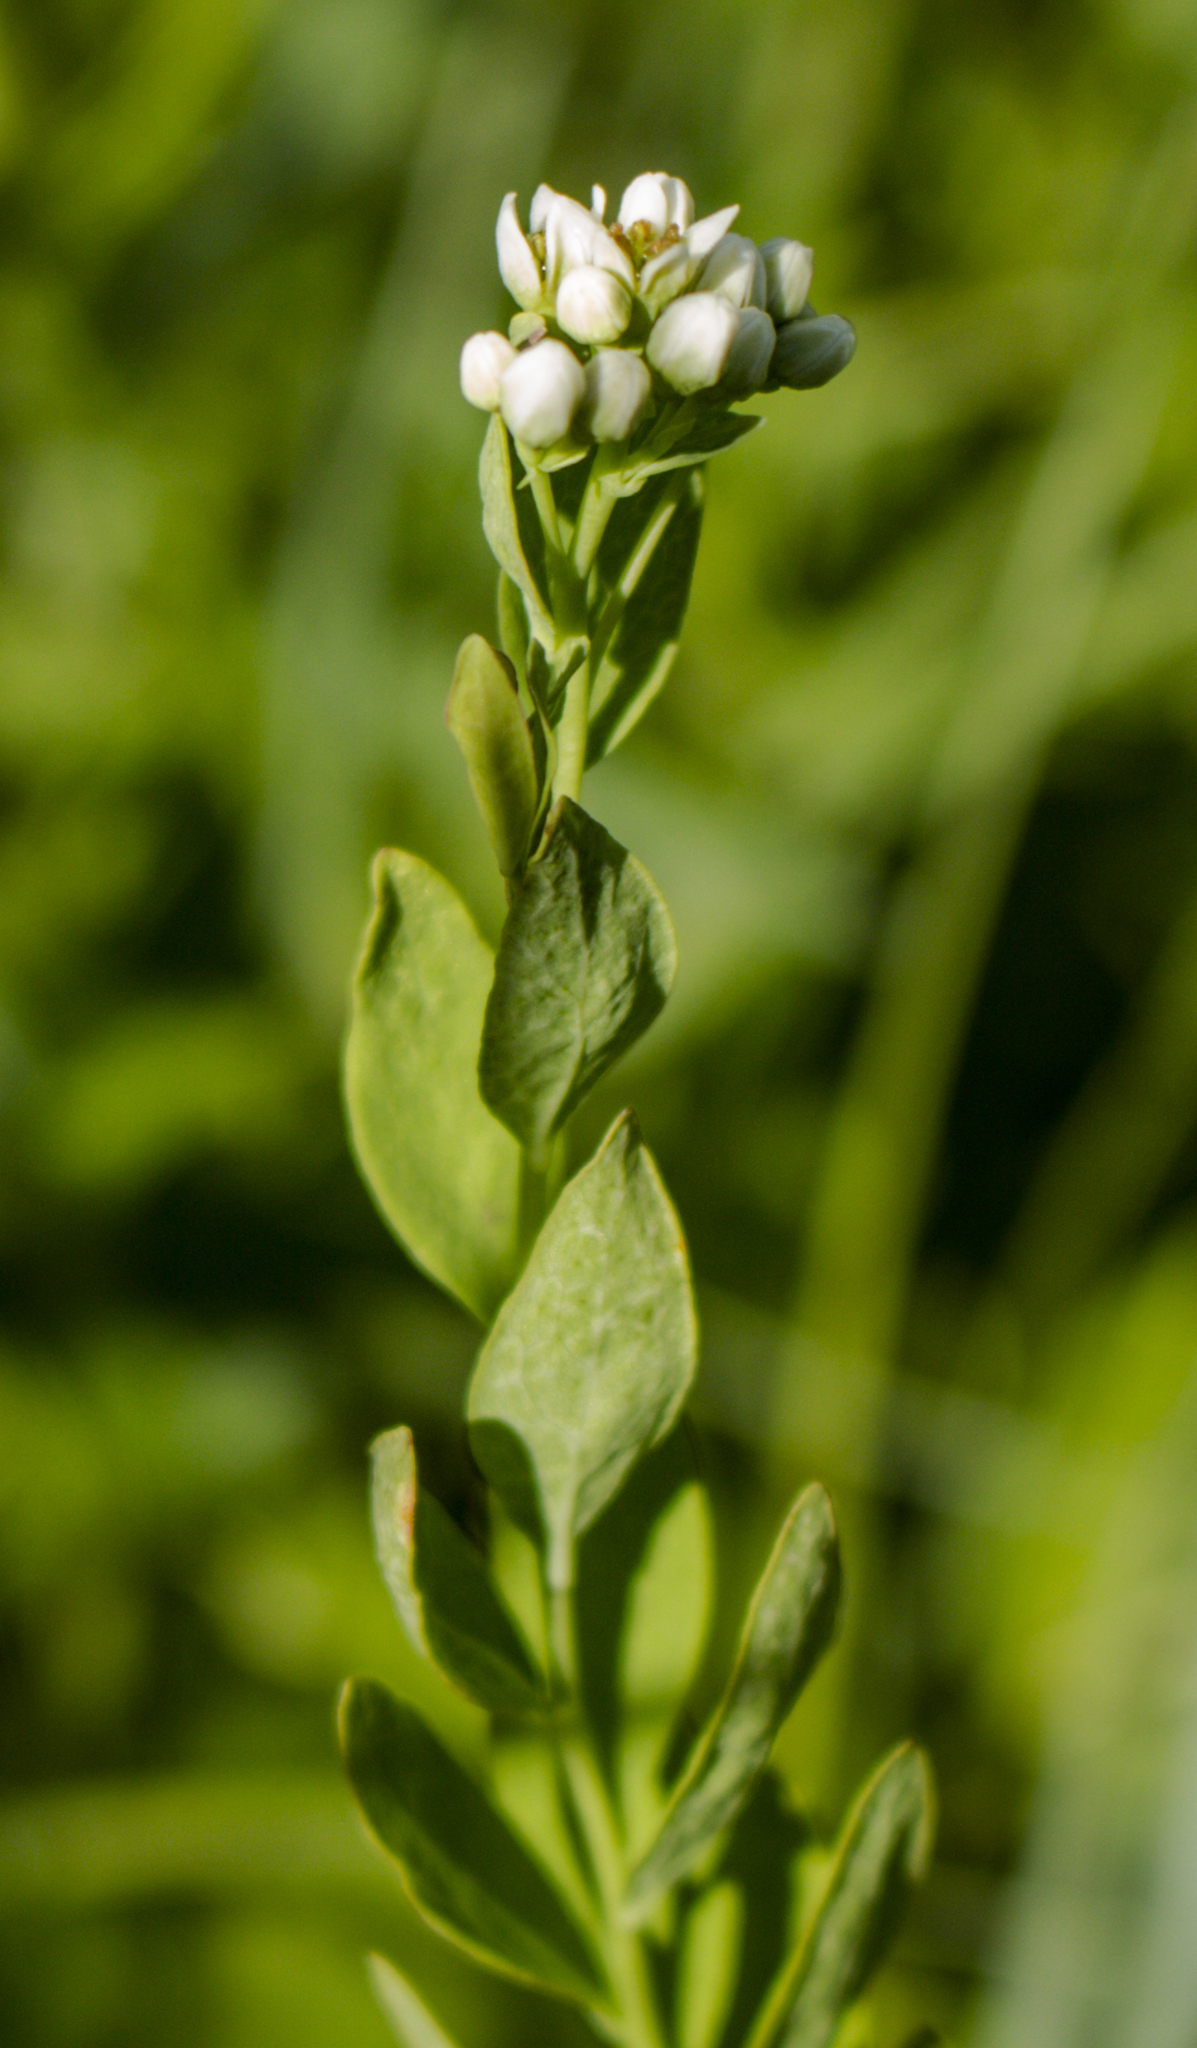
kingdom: Plantae
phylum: Tracheophyta
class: Magnoliopsida
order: Santalales
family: Comandraceae
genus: Comandra
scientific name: Comandra umbellata
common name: Bastard toadflax
